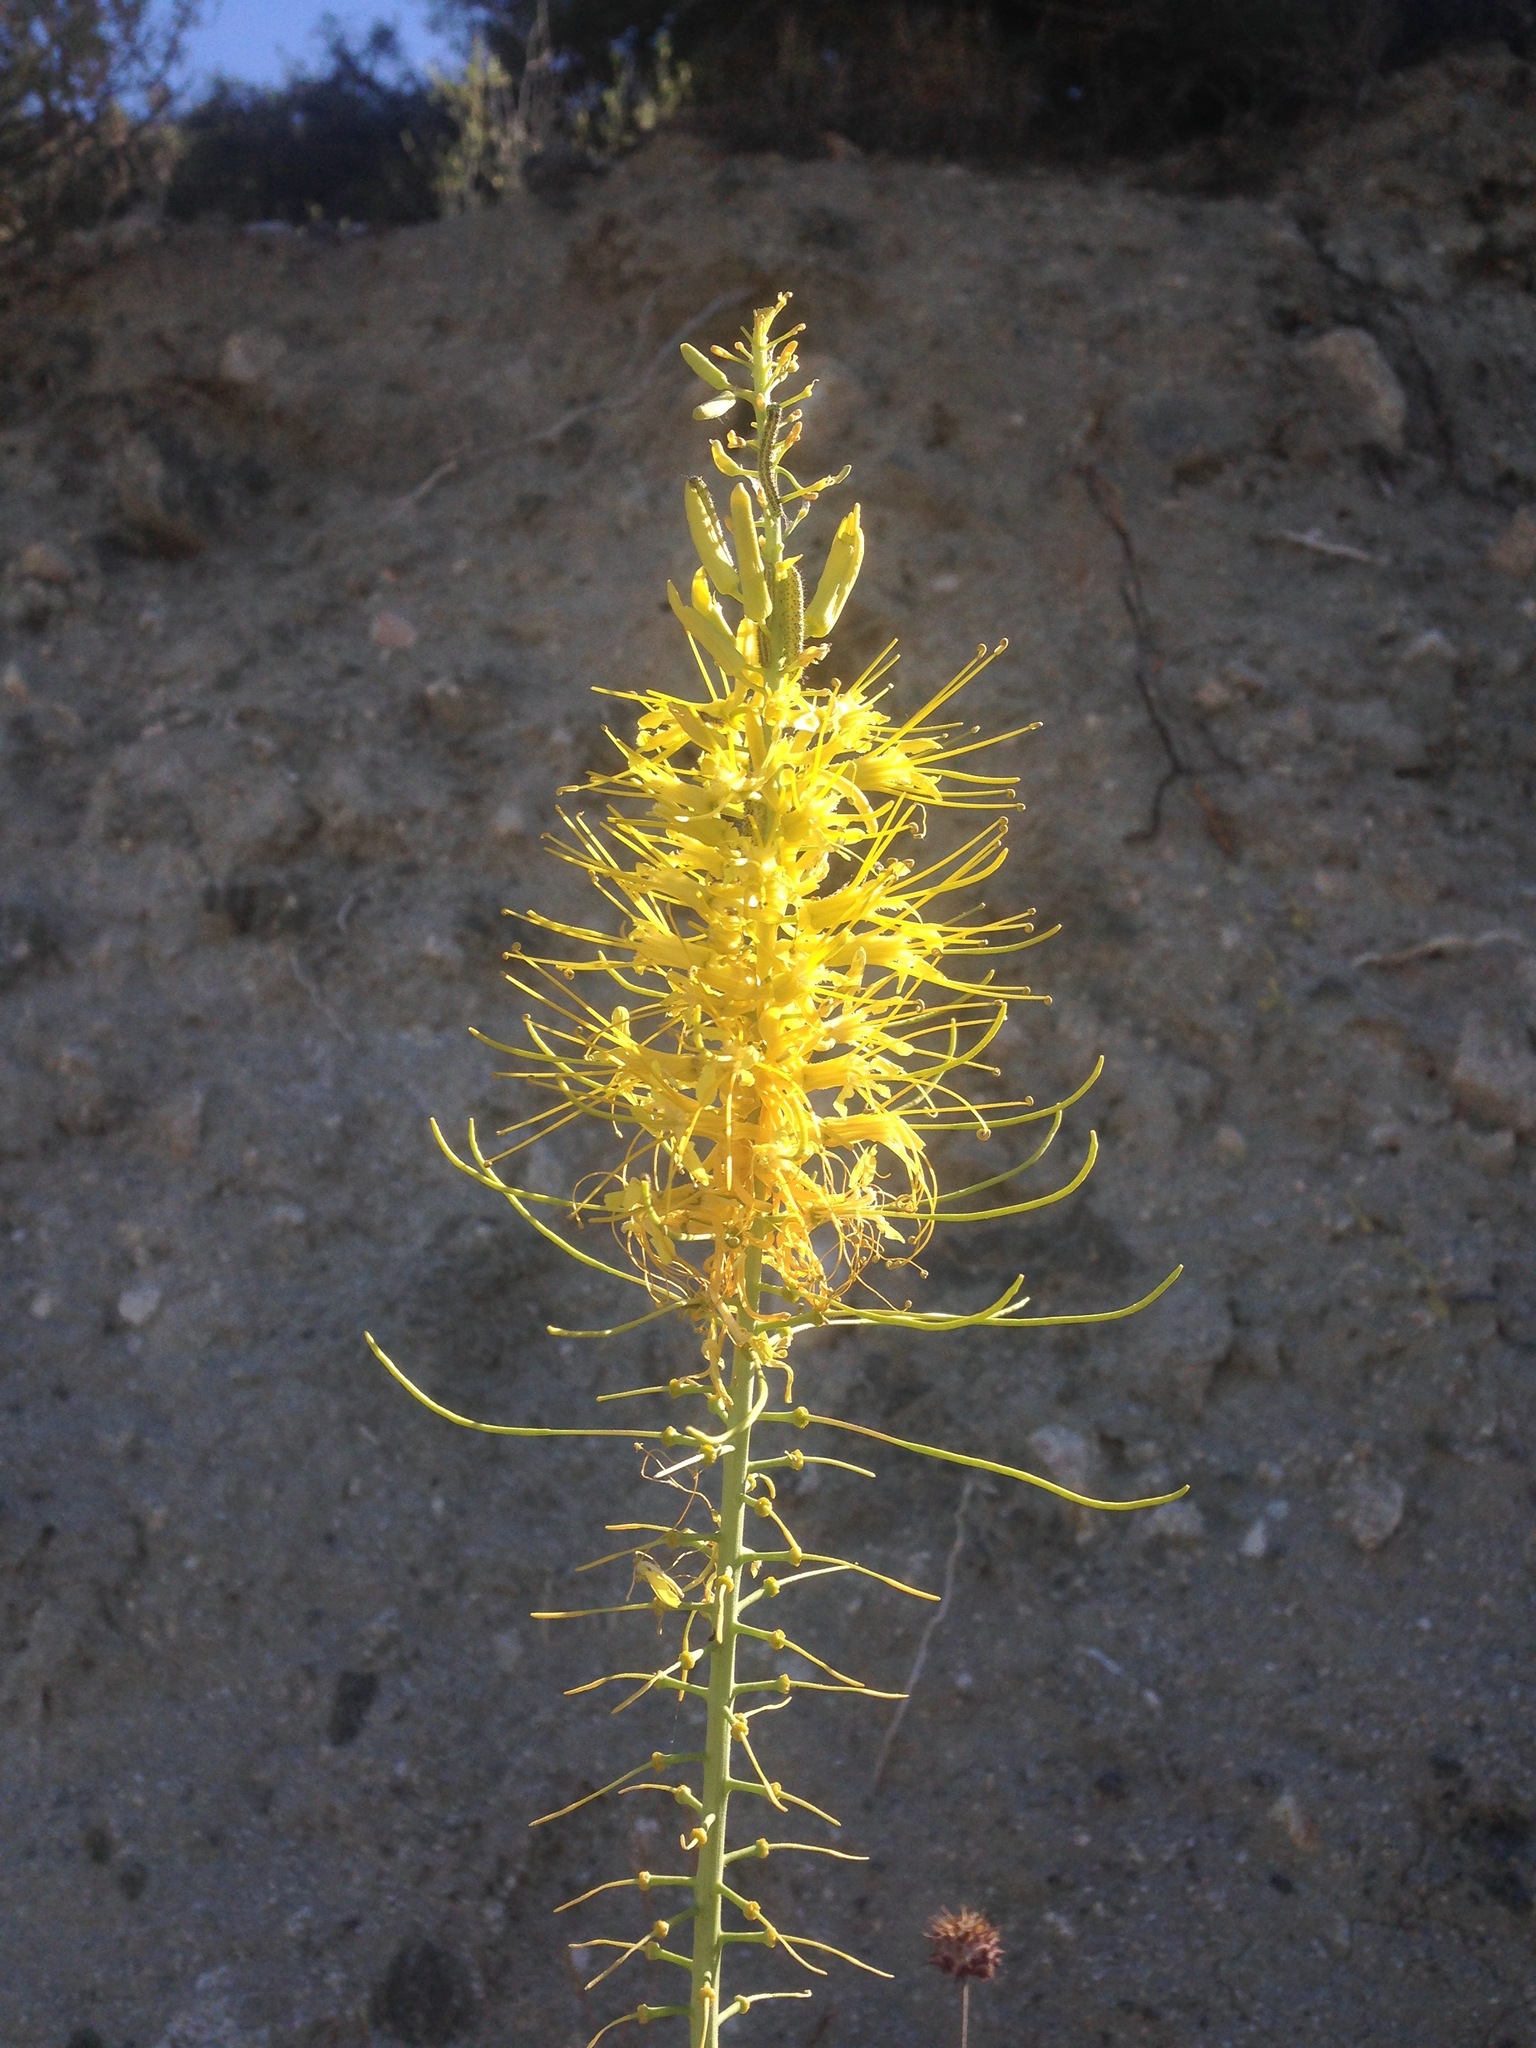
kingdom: Plantae
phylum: Tracheophyta
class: Magnoliopsida
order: Brassicales
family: Brassicaceae
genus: Stanleya
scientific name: Stanleya pinnata
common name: Prince's-plume
